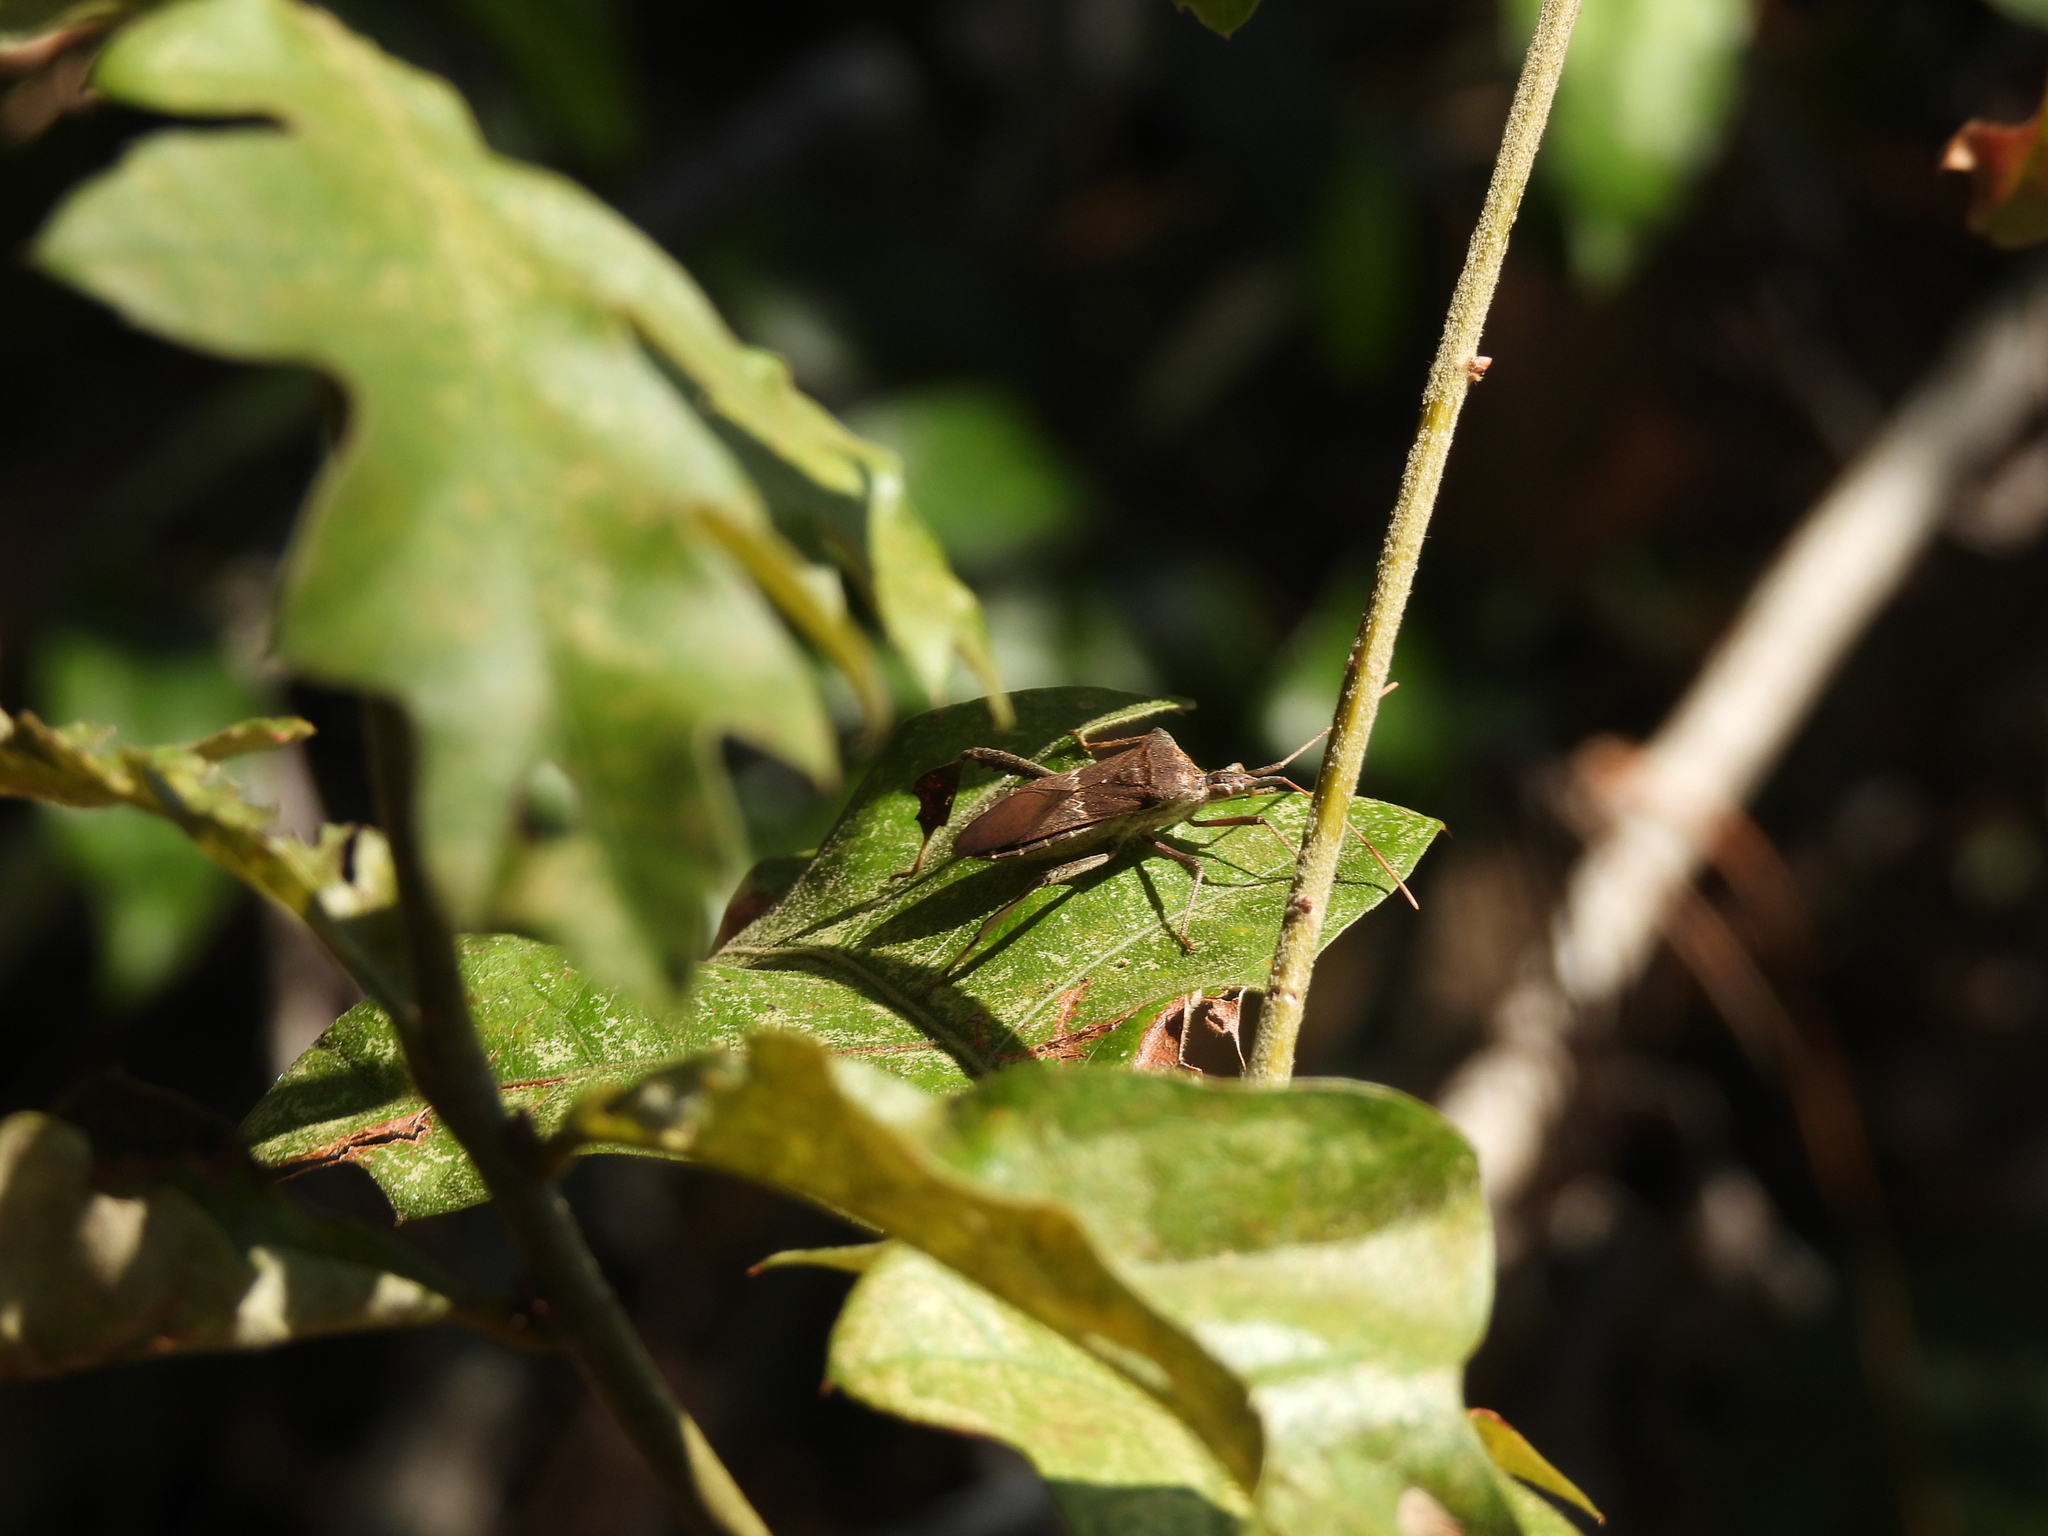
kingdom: Animalia
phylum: Arthropoda
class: Insecta
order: Hemiptera
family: Coreidae
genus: Leptoglossus
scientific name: Leptoglossus zonatus
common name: Large-legged bug
